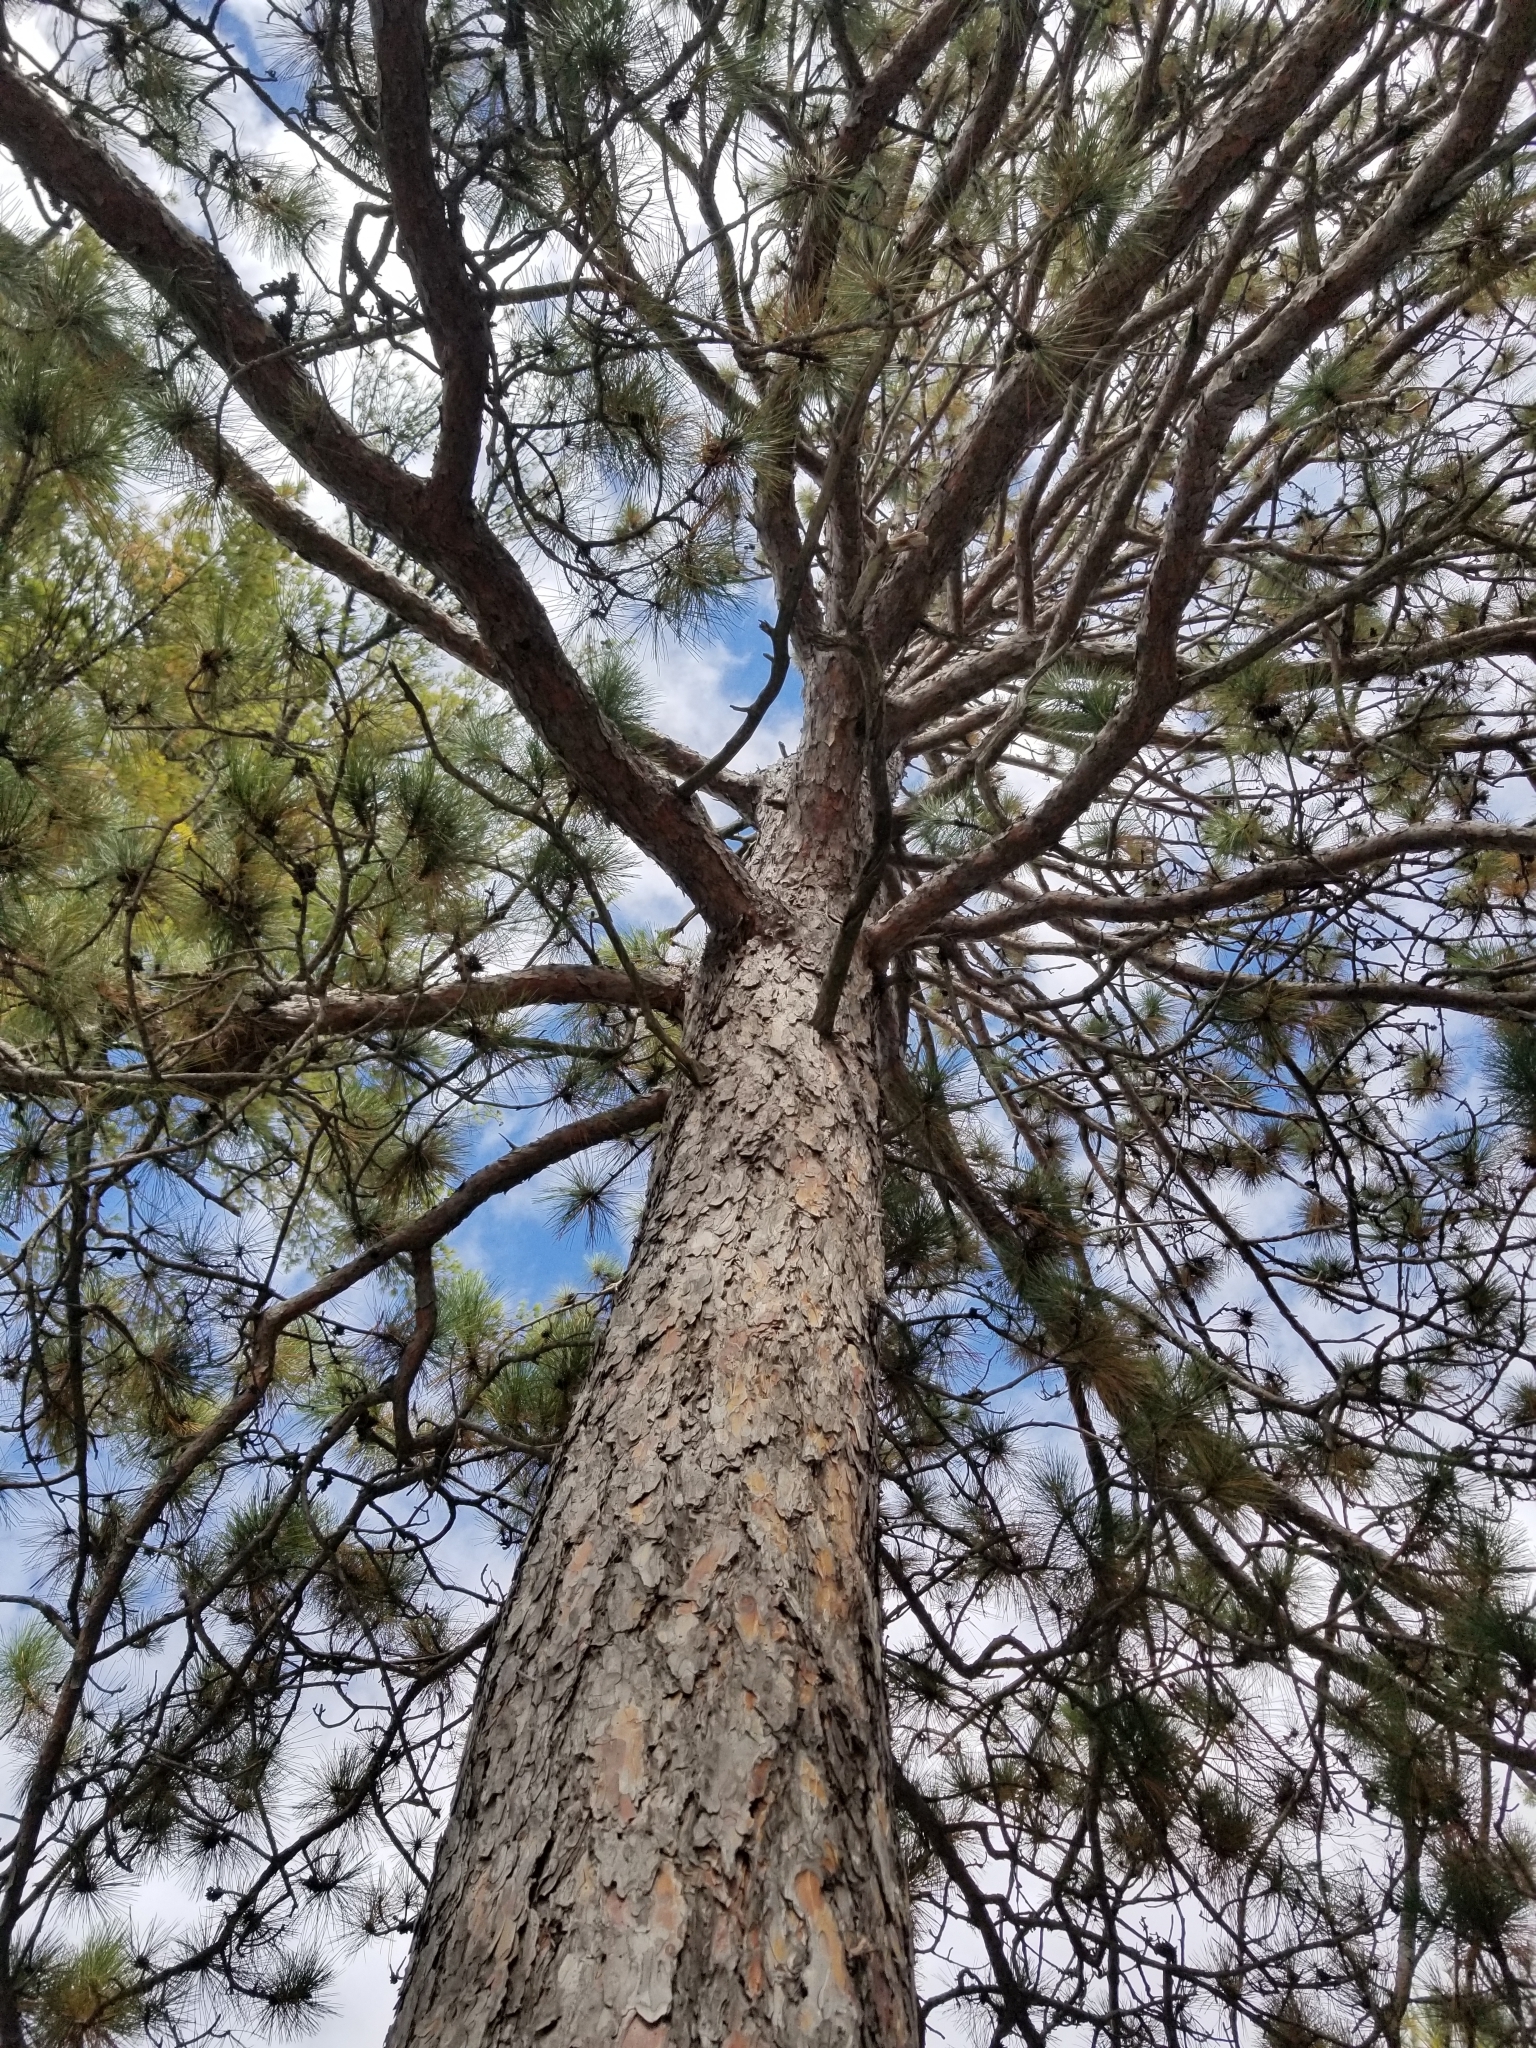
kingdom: Plantae
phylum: Tracheophyta
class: Pinopsida
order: Pinales
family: Pinaceae
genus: Pinus
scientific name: Pinus resinosa
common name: Norway pine
